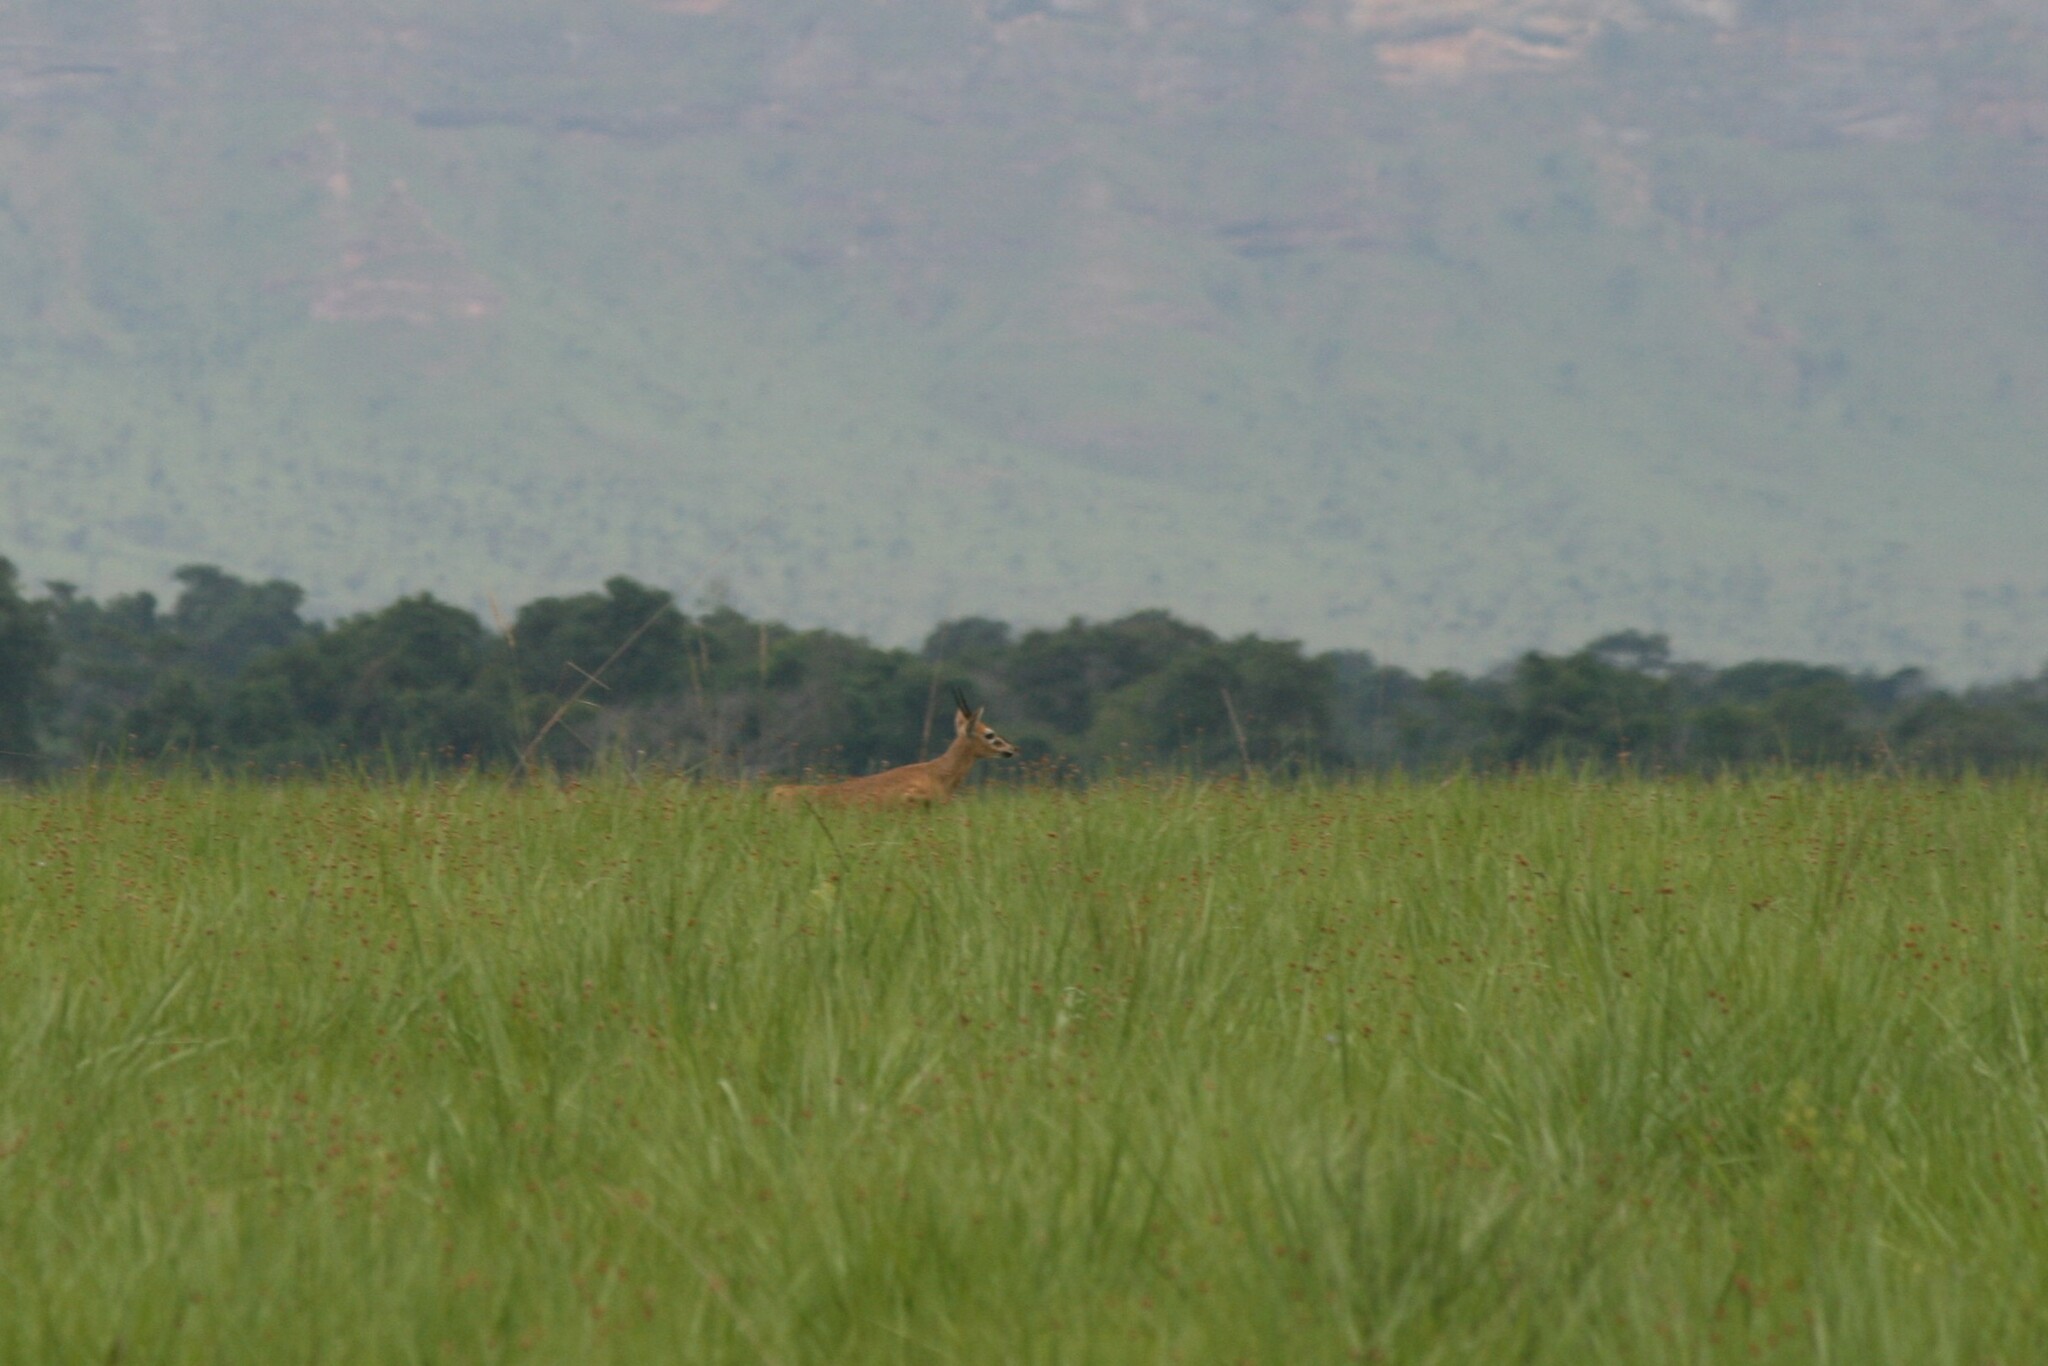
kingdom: Animalia
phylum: Chordata
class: Mammalia
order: Artiodactyla
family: Bovidae
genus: Sylvicapra
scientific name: Sylvicapra grimmia
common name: Bush duiker
